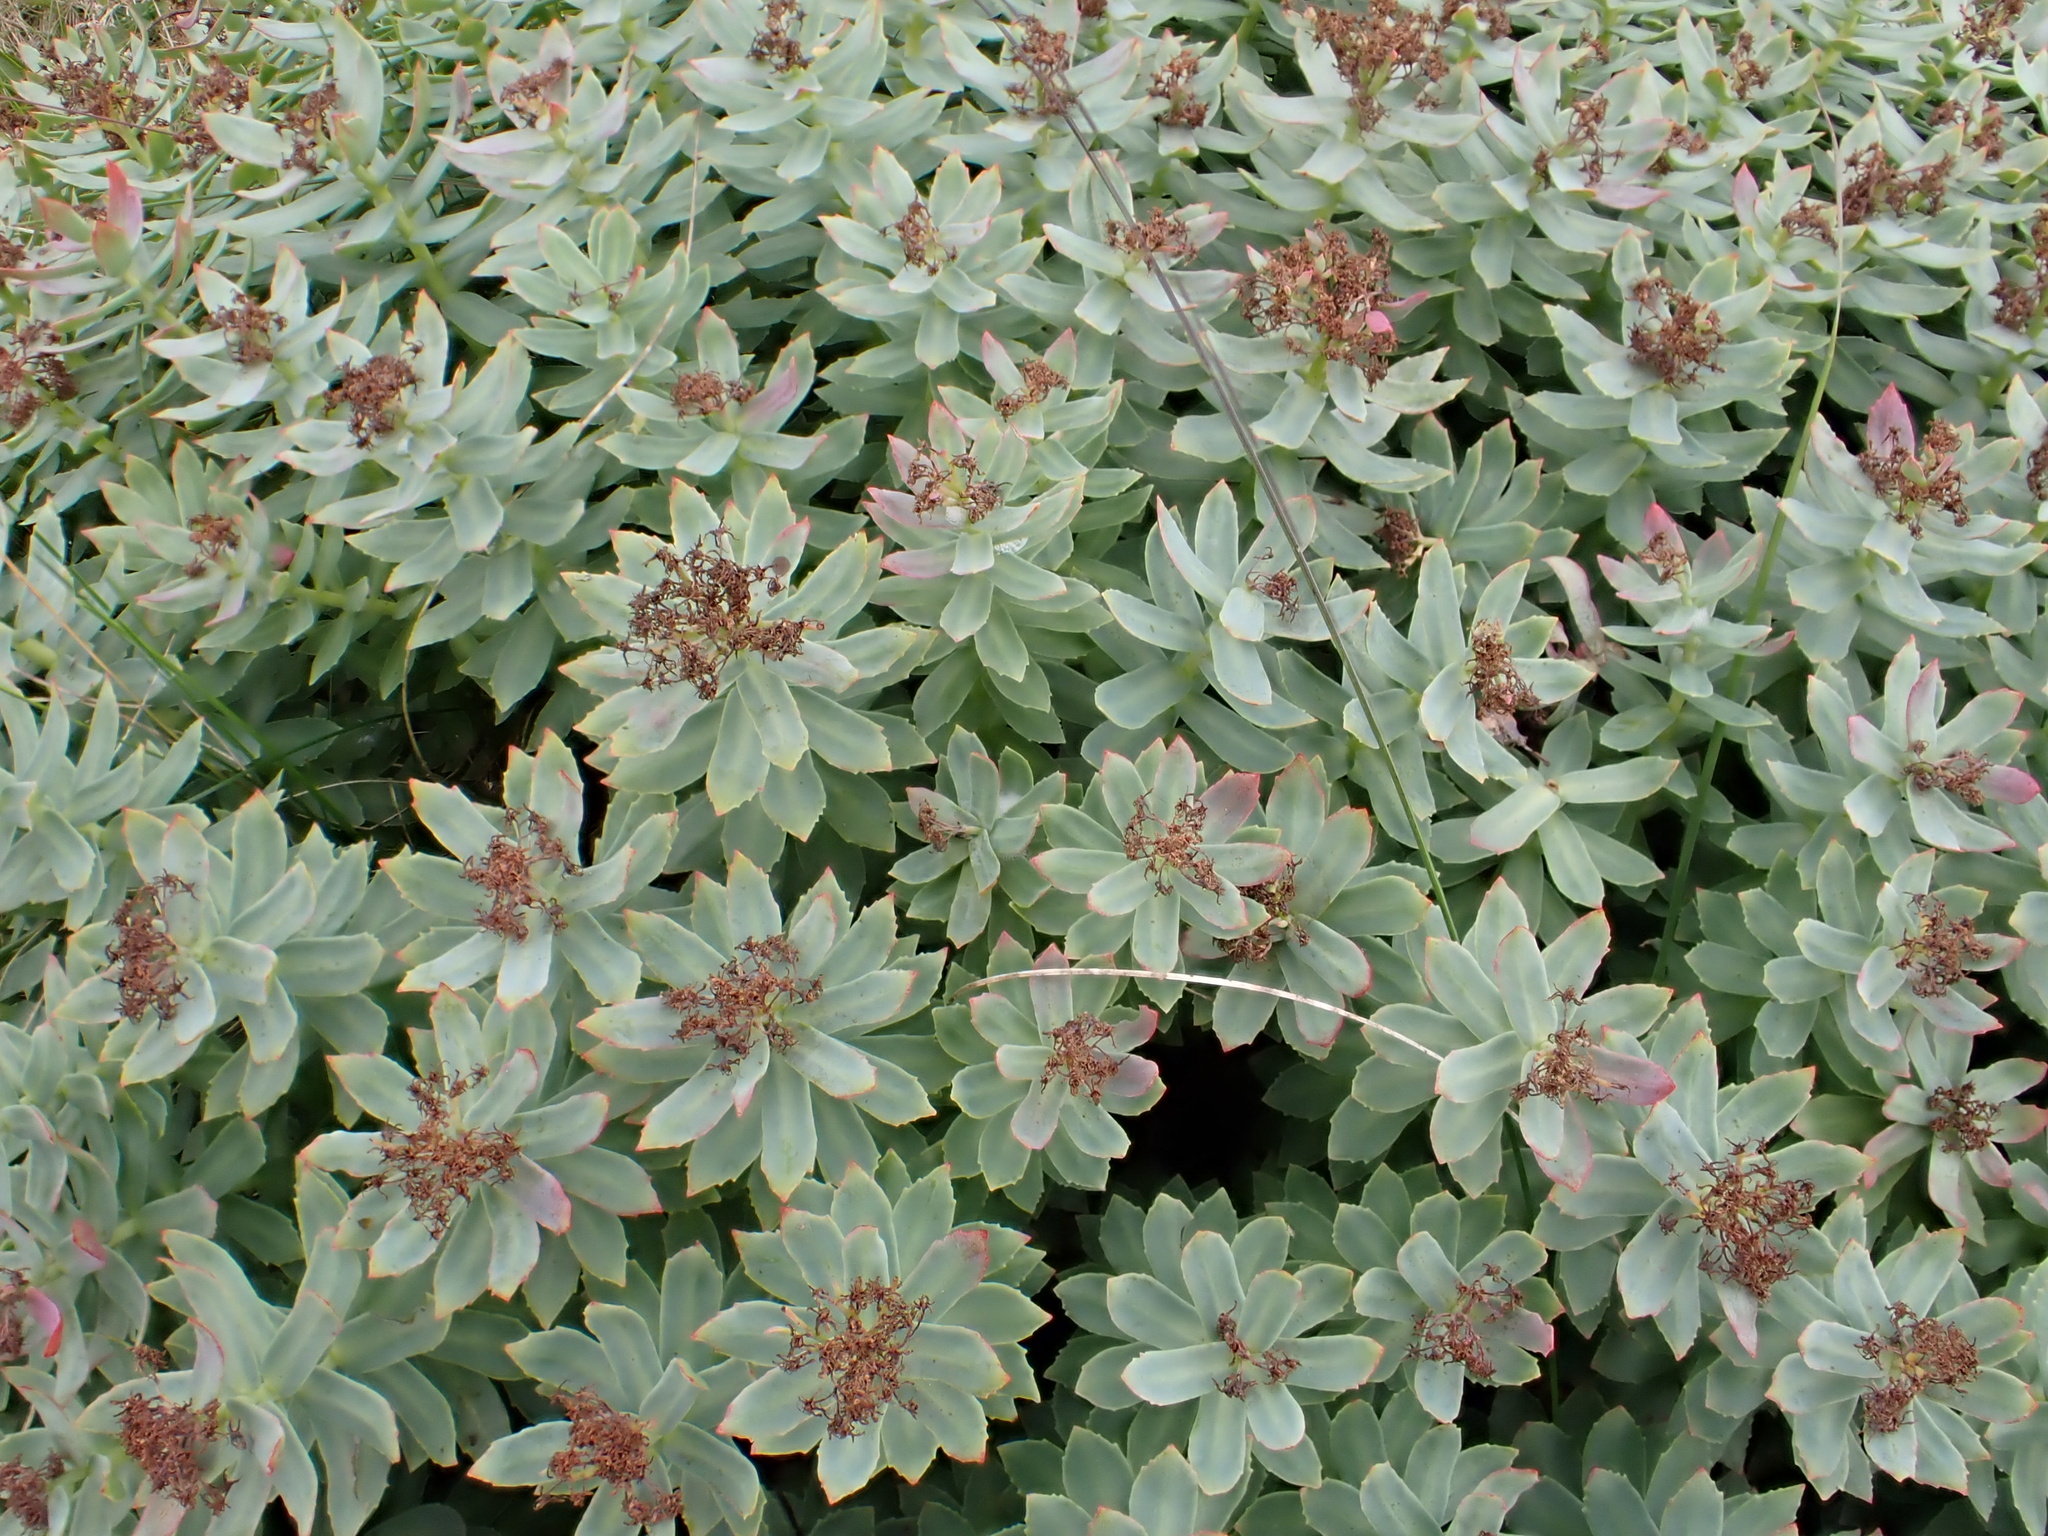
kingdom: Plantae
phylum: Tracheophyta
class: Magnoliopsida
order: Saxifragales
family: Crassulaceae
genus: Rhodiola
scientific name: Rhodiola rosea
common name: Roseroot
